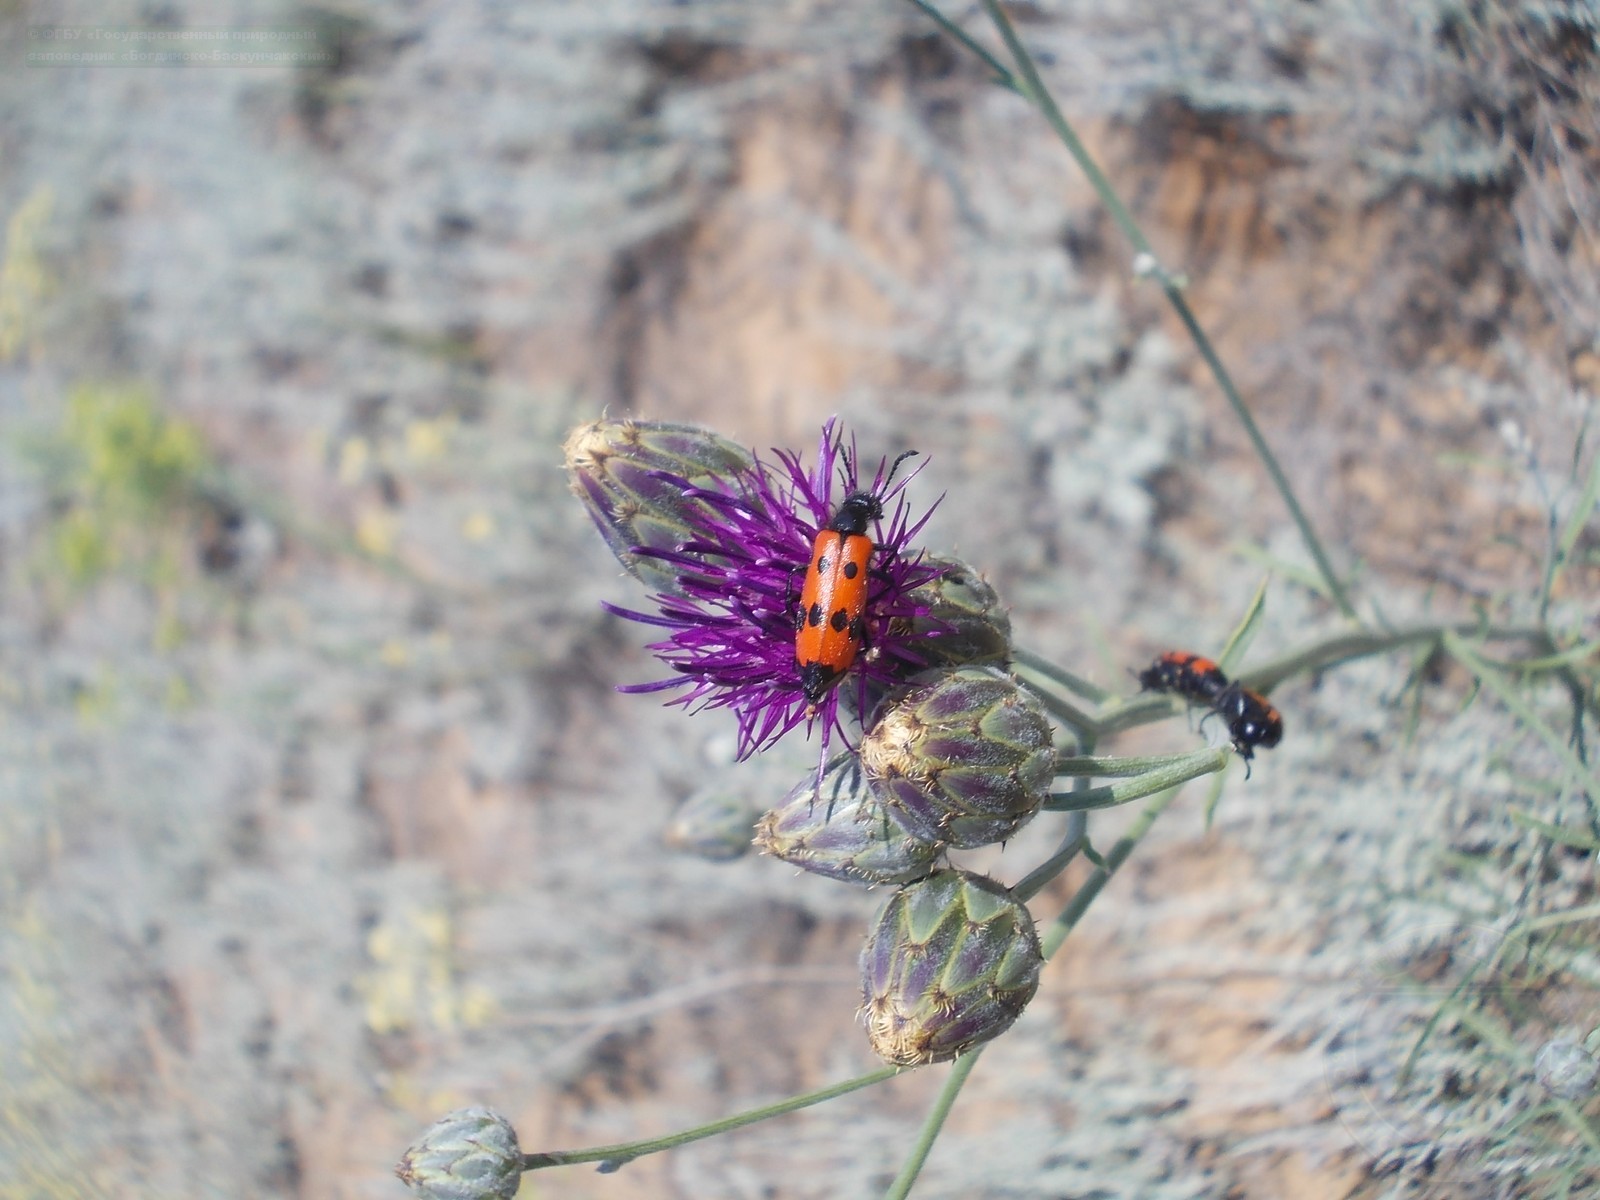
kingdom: Plantae
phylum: Tracheophyta
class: Magnoliopsida
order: Asterales
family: Asteraceae
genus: Centaurea
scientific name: Centaurea adpressa
